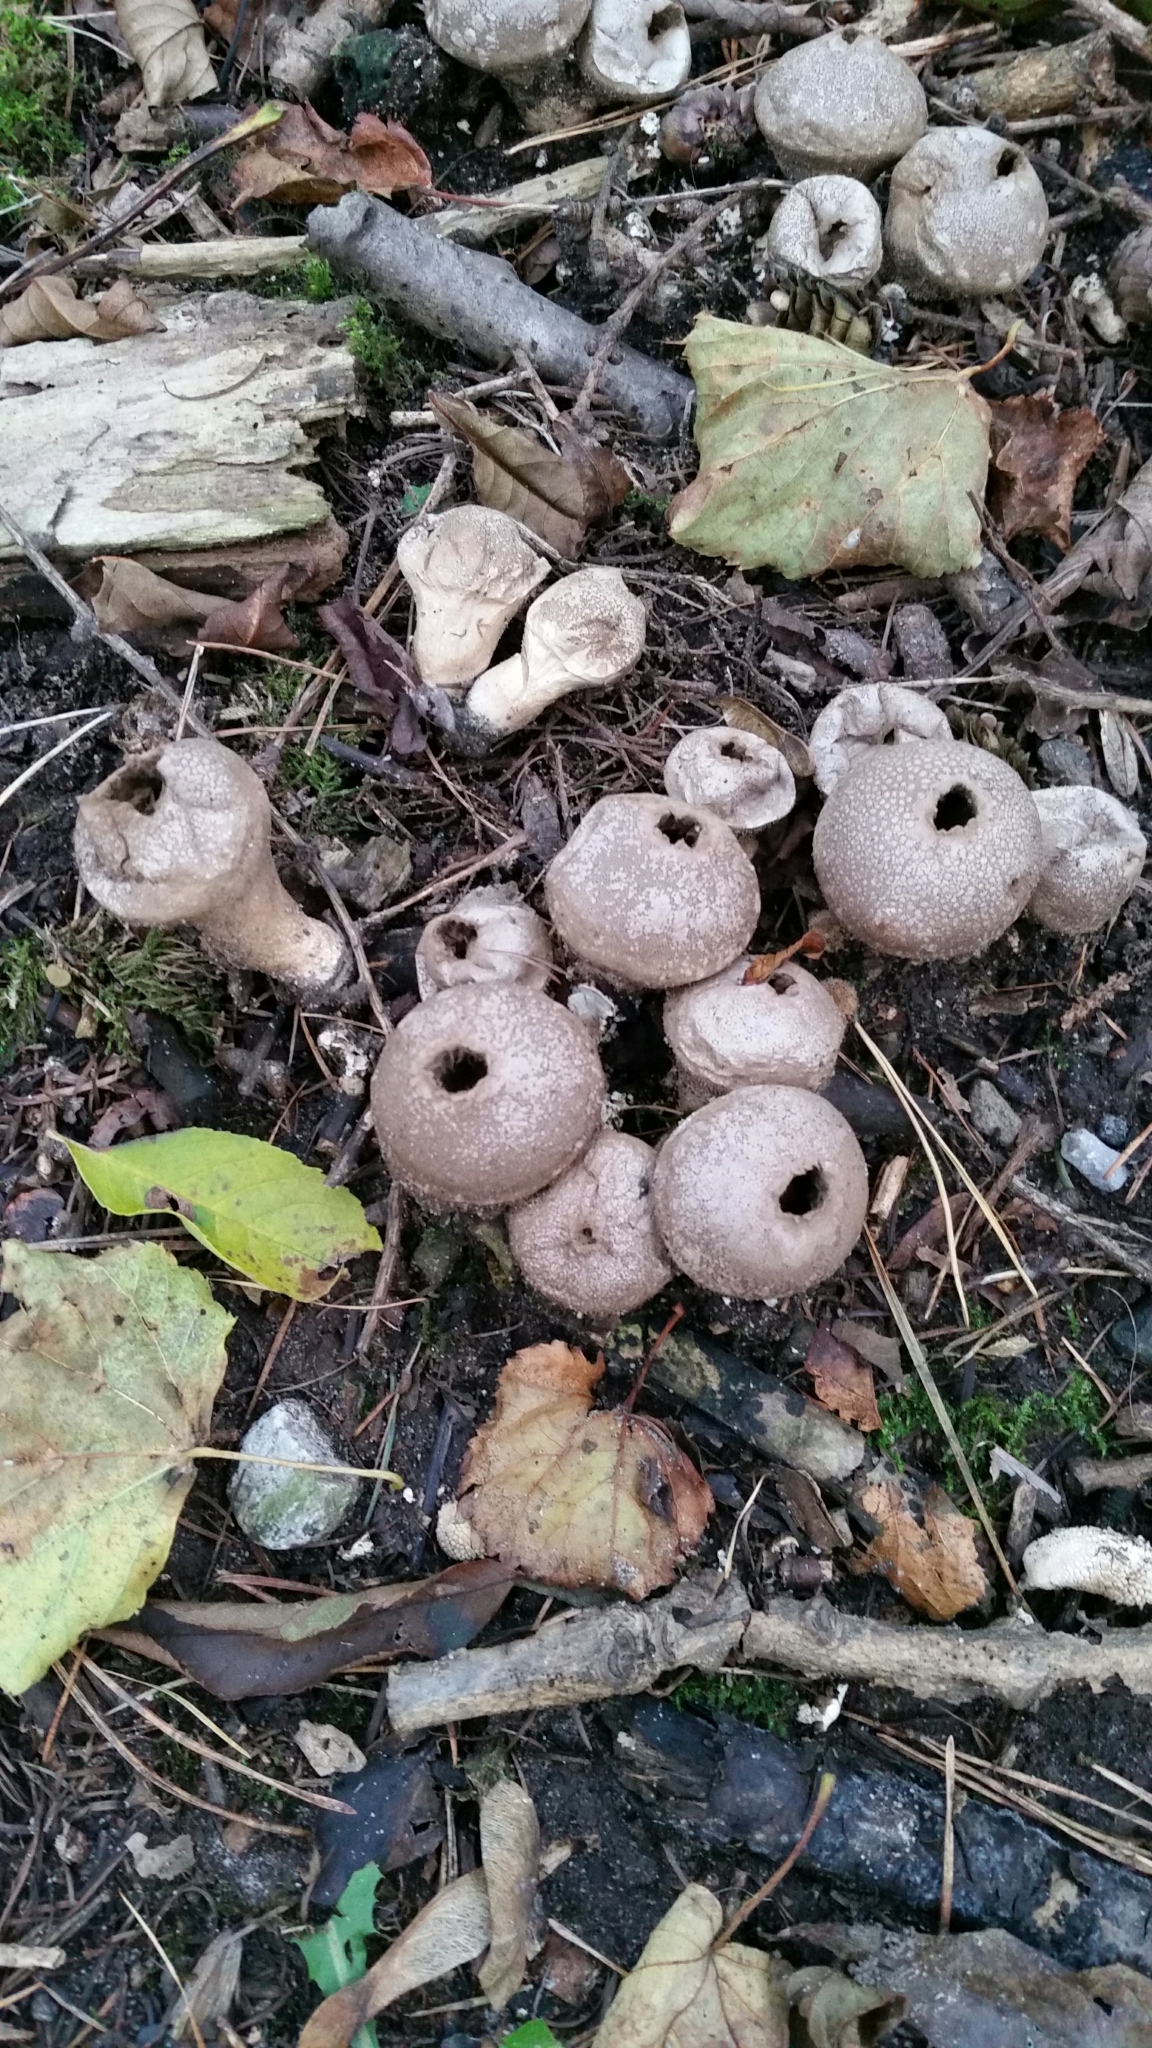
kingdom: Fungi
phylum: Basidiomycota
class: Agaricomycetes
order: Agaricales
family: Lycoperdaceae
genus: Apioperdon
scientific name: Apioperdon pyriforme
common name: Pear-shaped puffball
